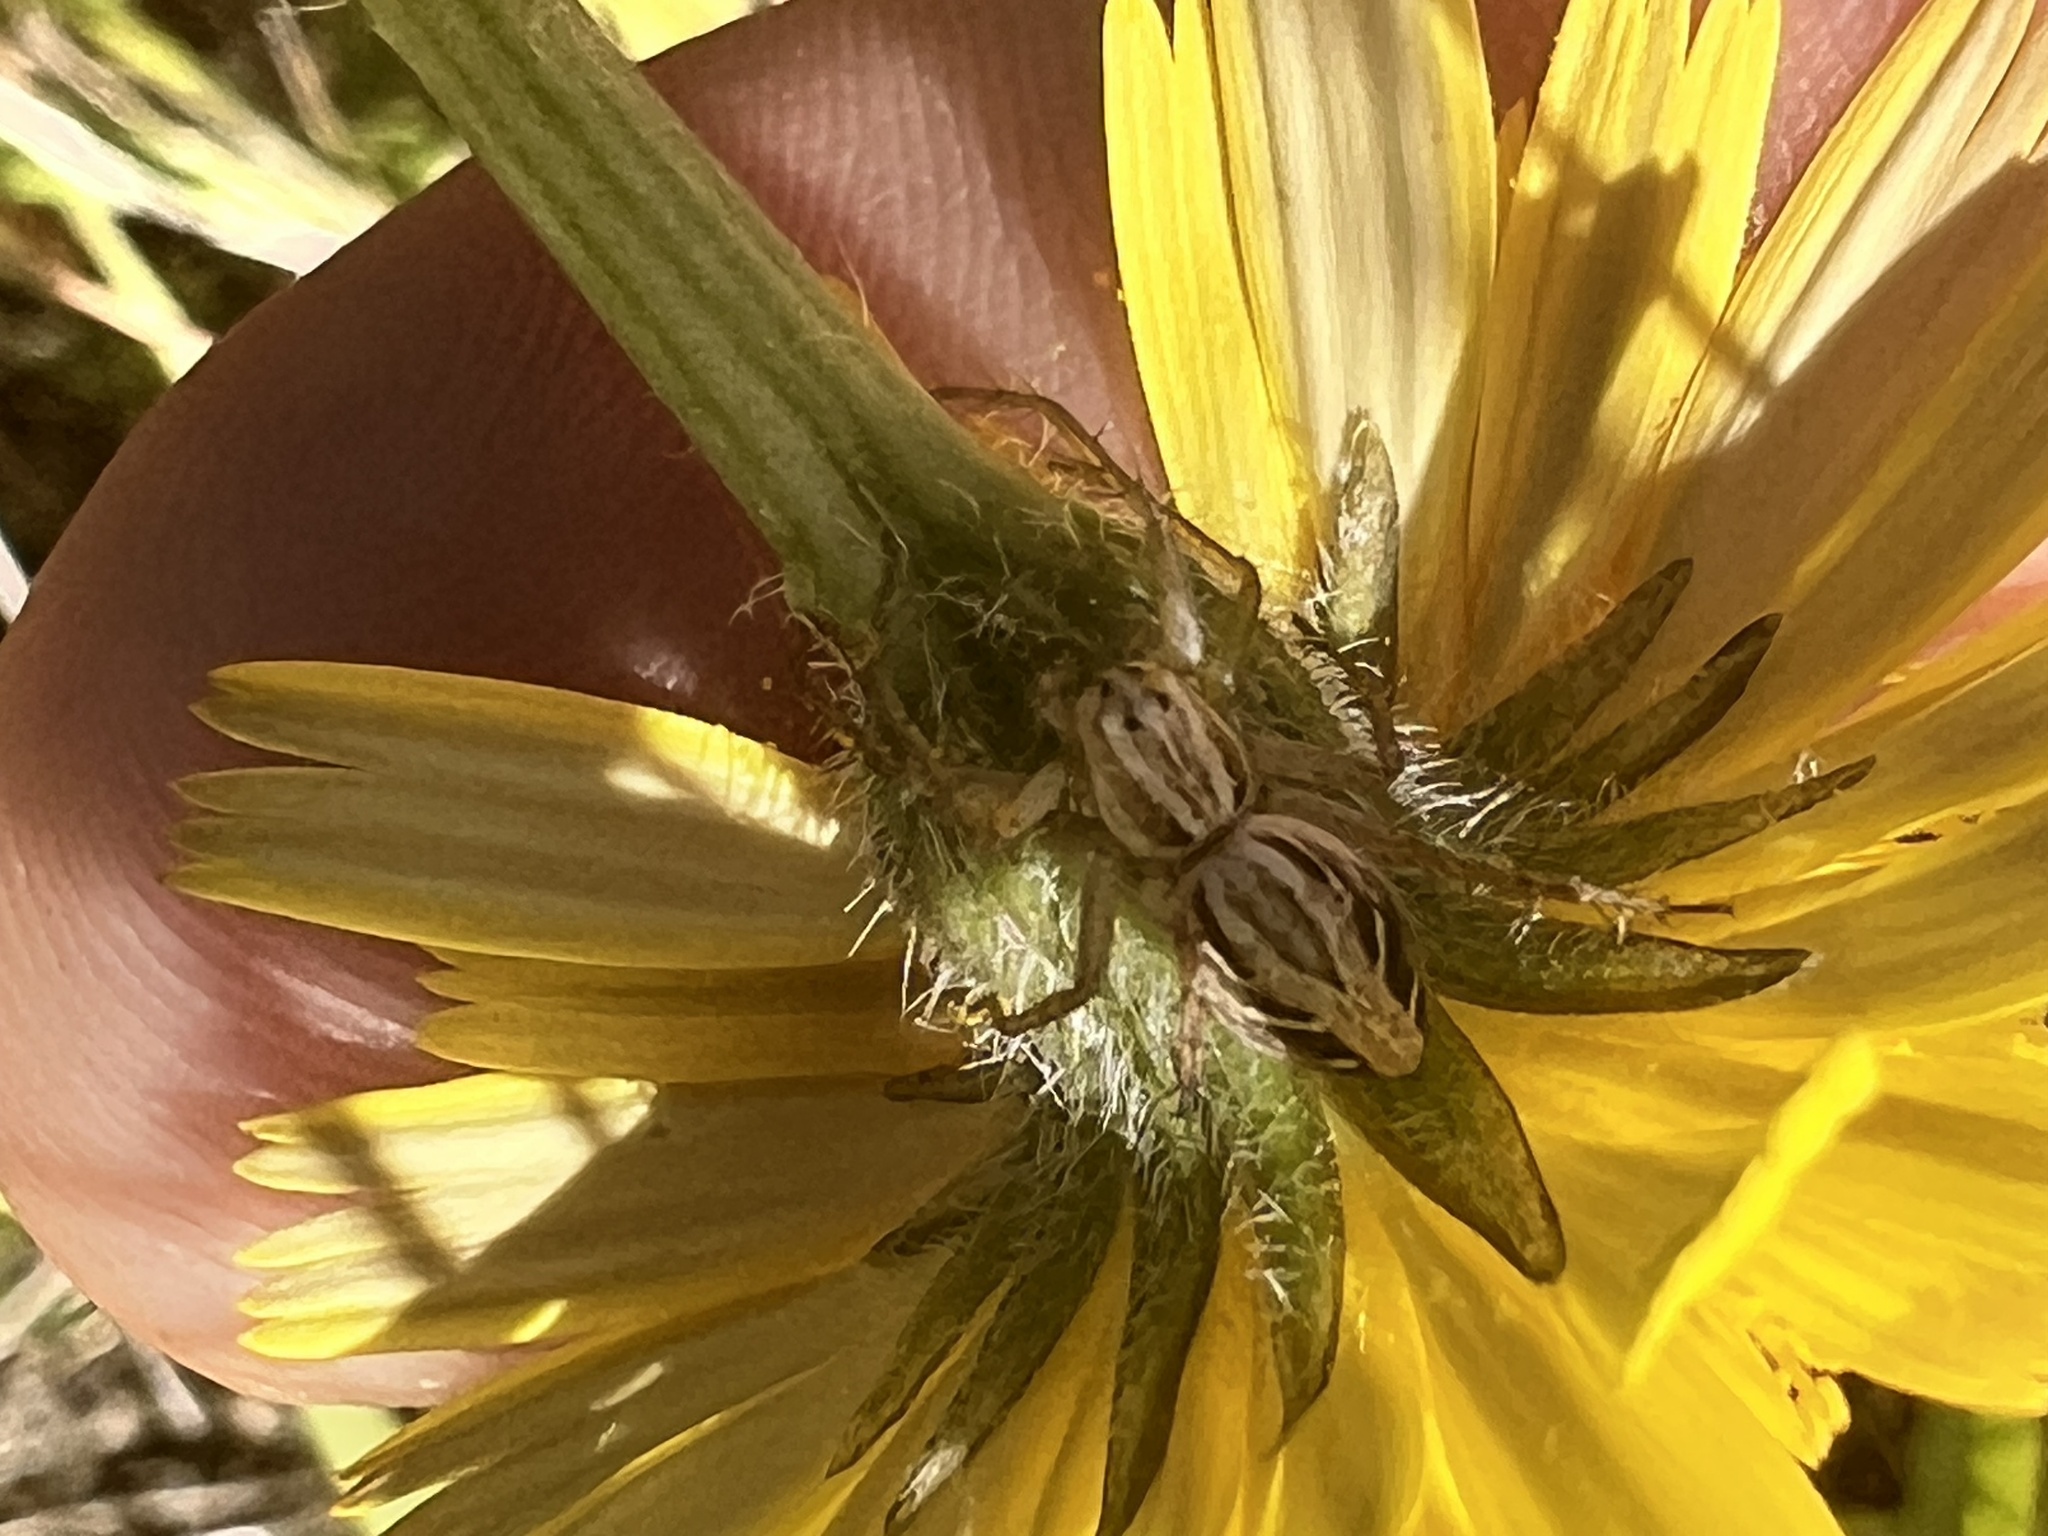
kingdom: Animalia
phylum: Arthropoda
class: Arachnida
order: Araneae
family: Oxyopidae
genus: Oxyopes
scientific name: Oxyopes gracilipes
